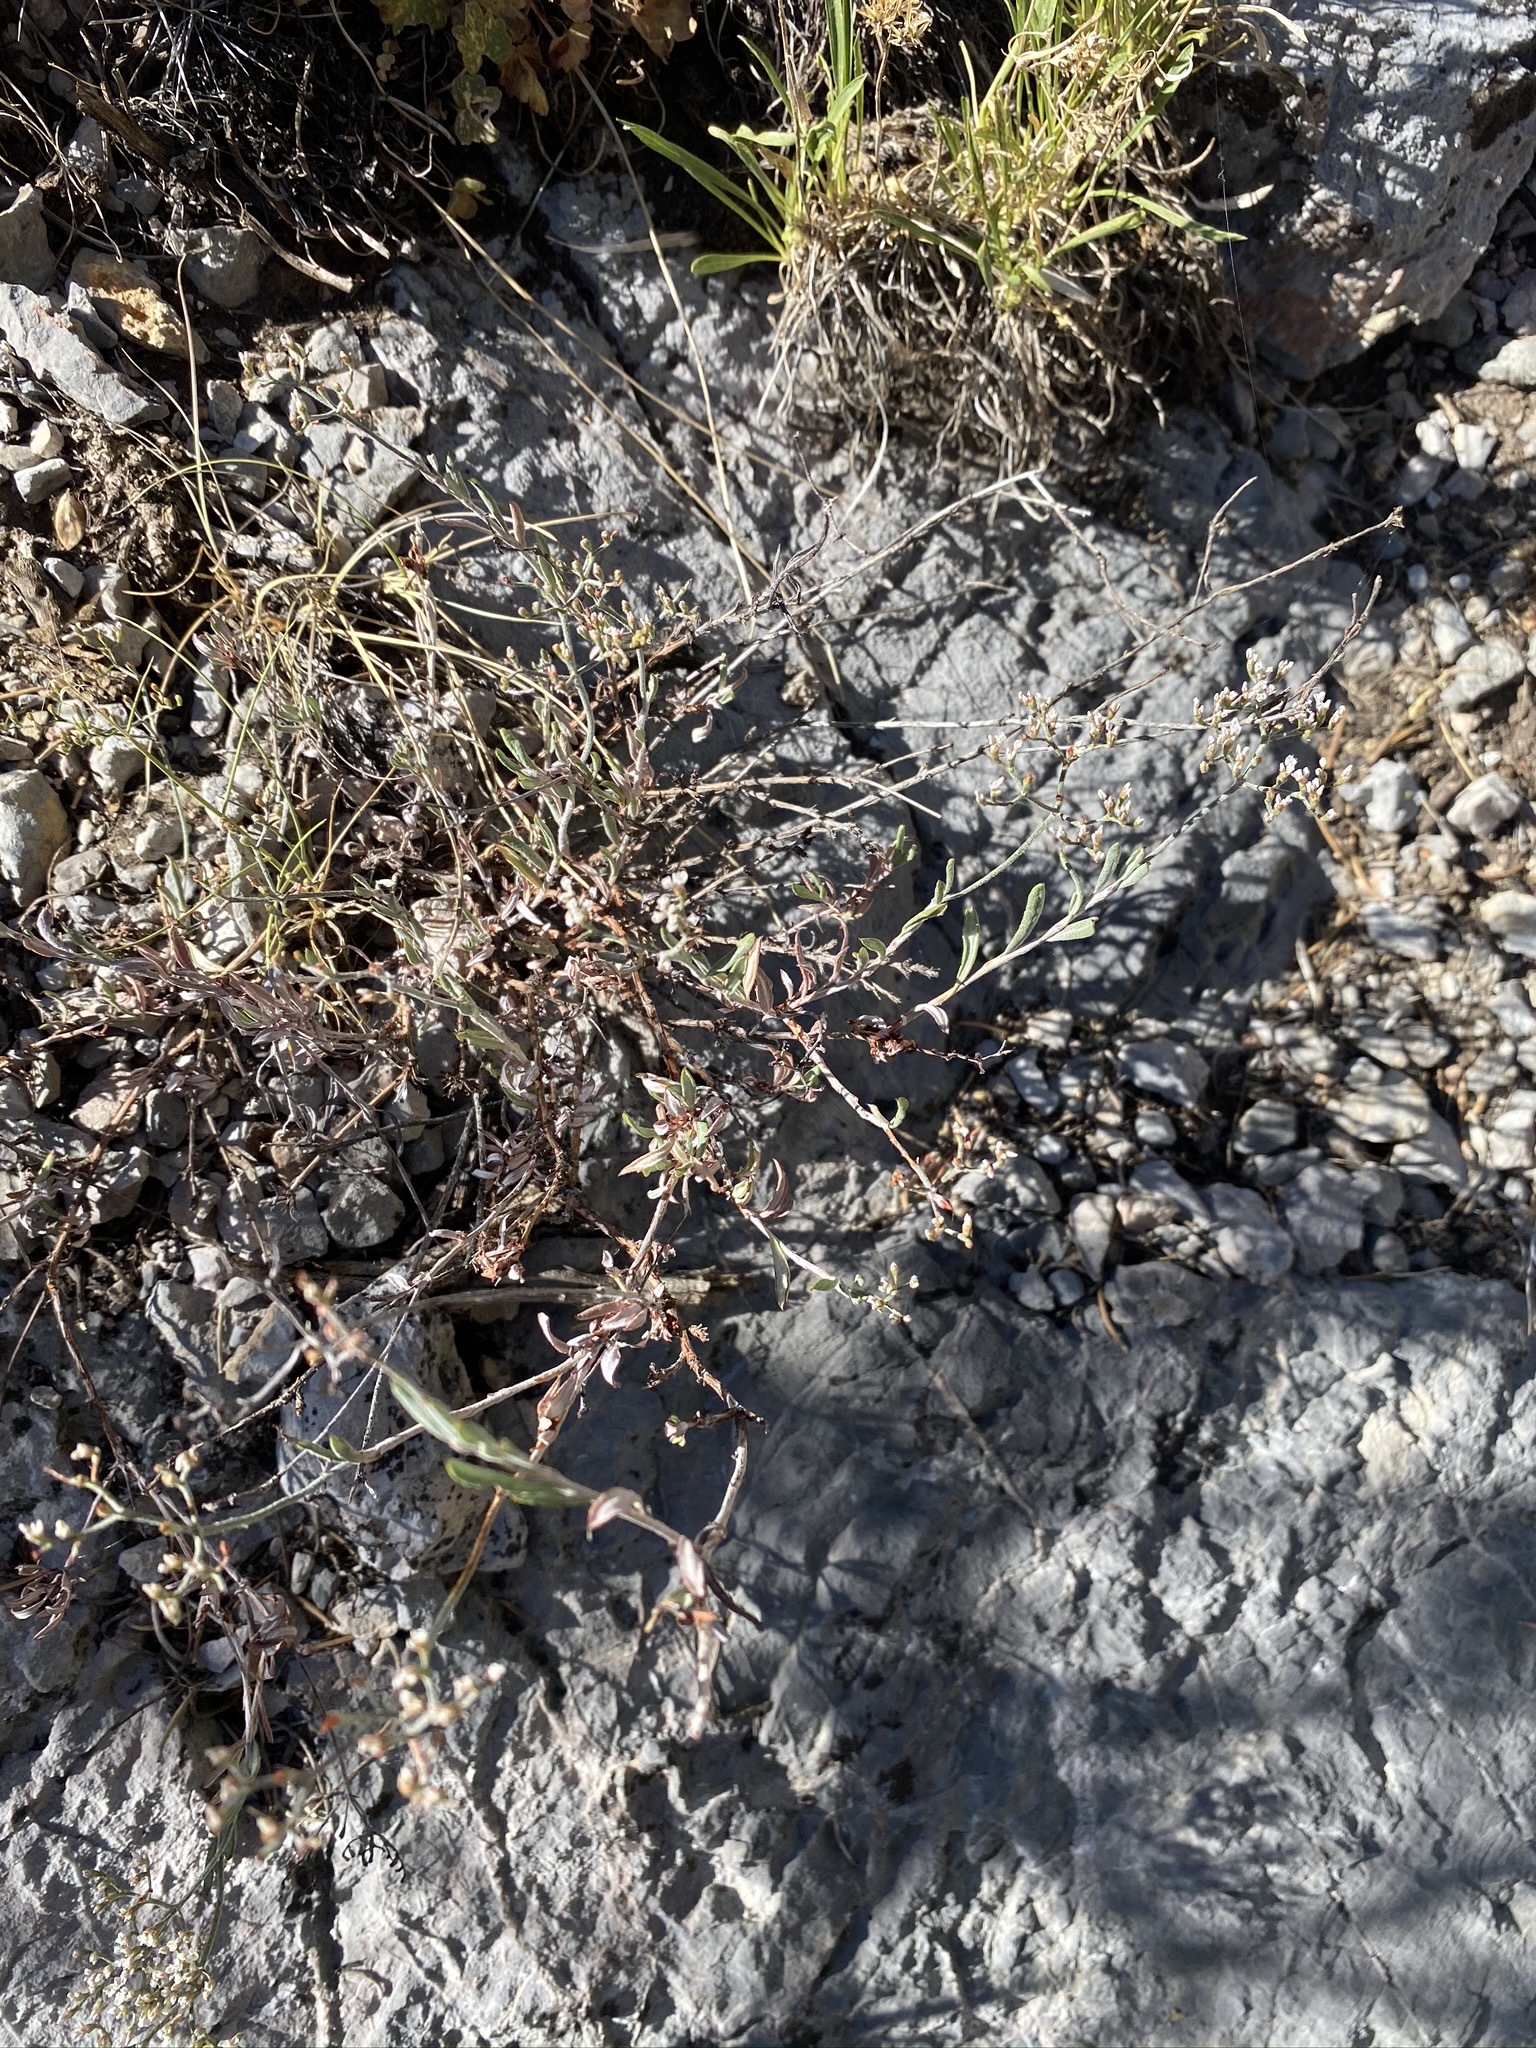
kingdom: Plantae
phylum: Tracheophyta
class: Magnoliopsida
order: Caryophyllales
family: Polygonaceae
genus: Eriogonum
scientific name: Eriogonum microtheca
